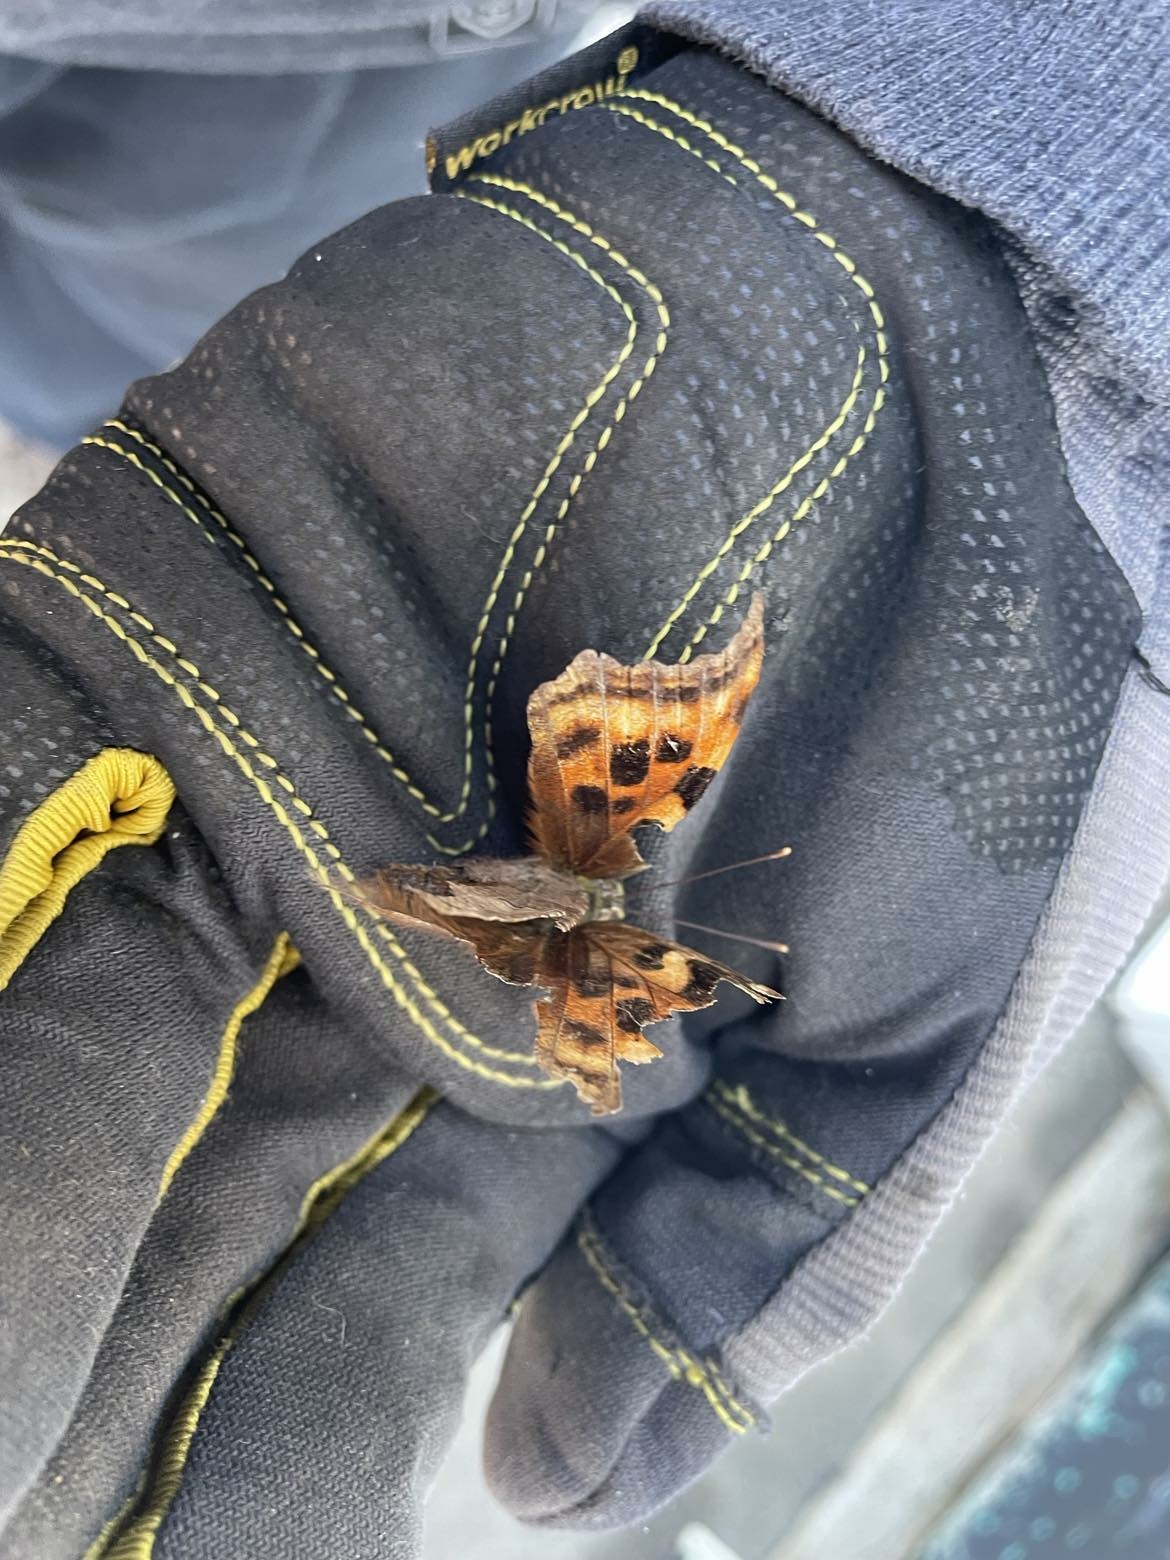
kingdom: Animalia
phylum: Arthropoda
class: Insecta
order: Lepidoptera
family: Nymphalidae
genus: Polygonia
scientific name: Polygonia vaualbum
